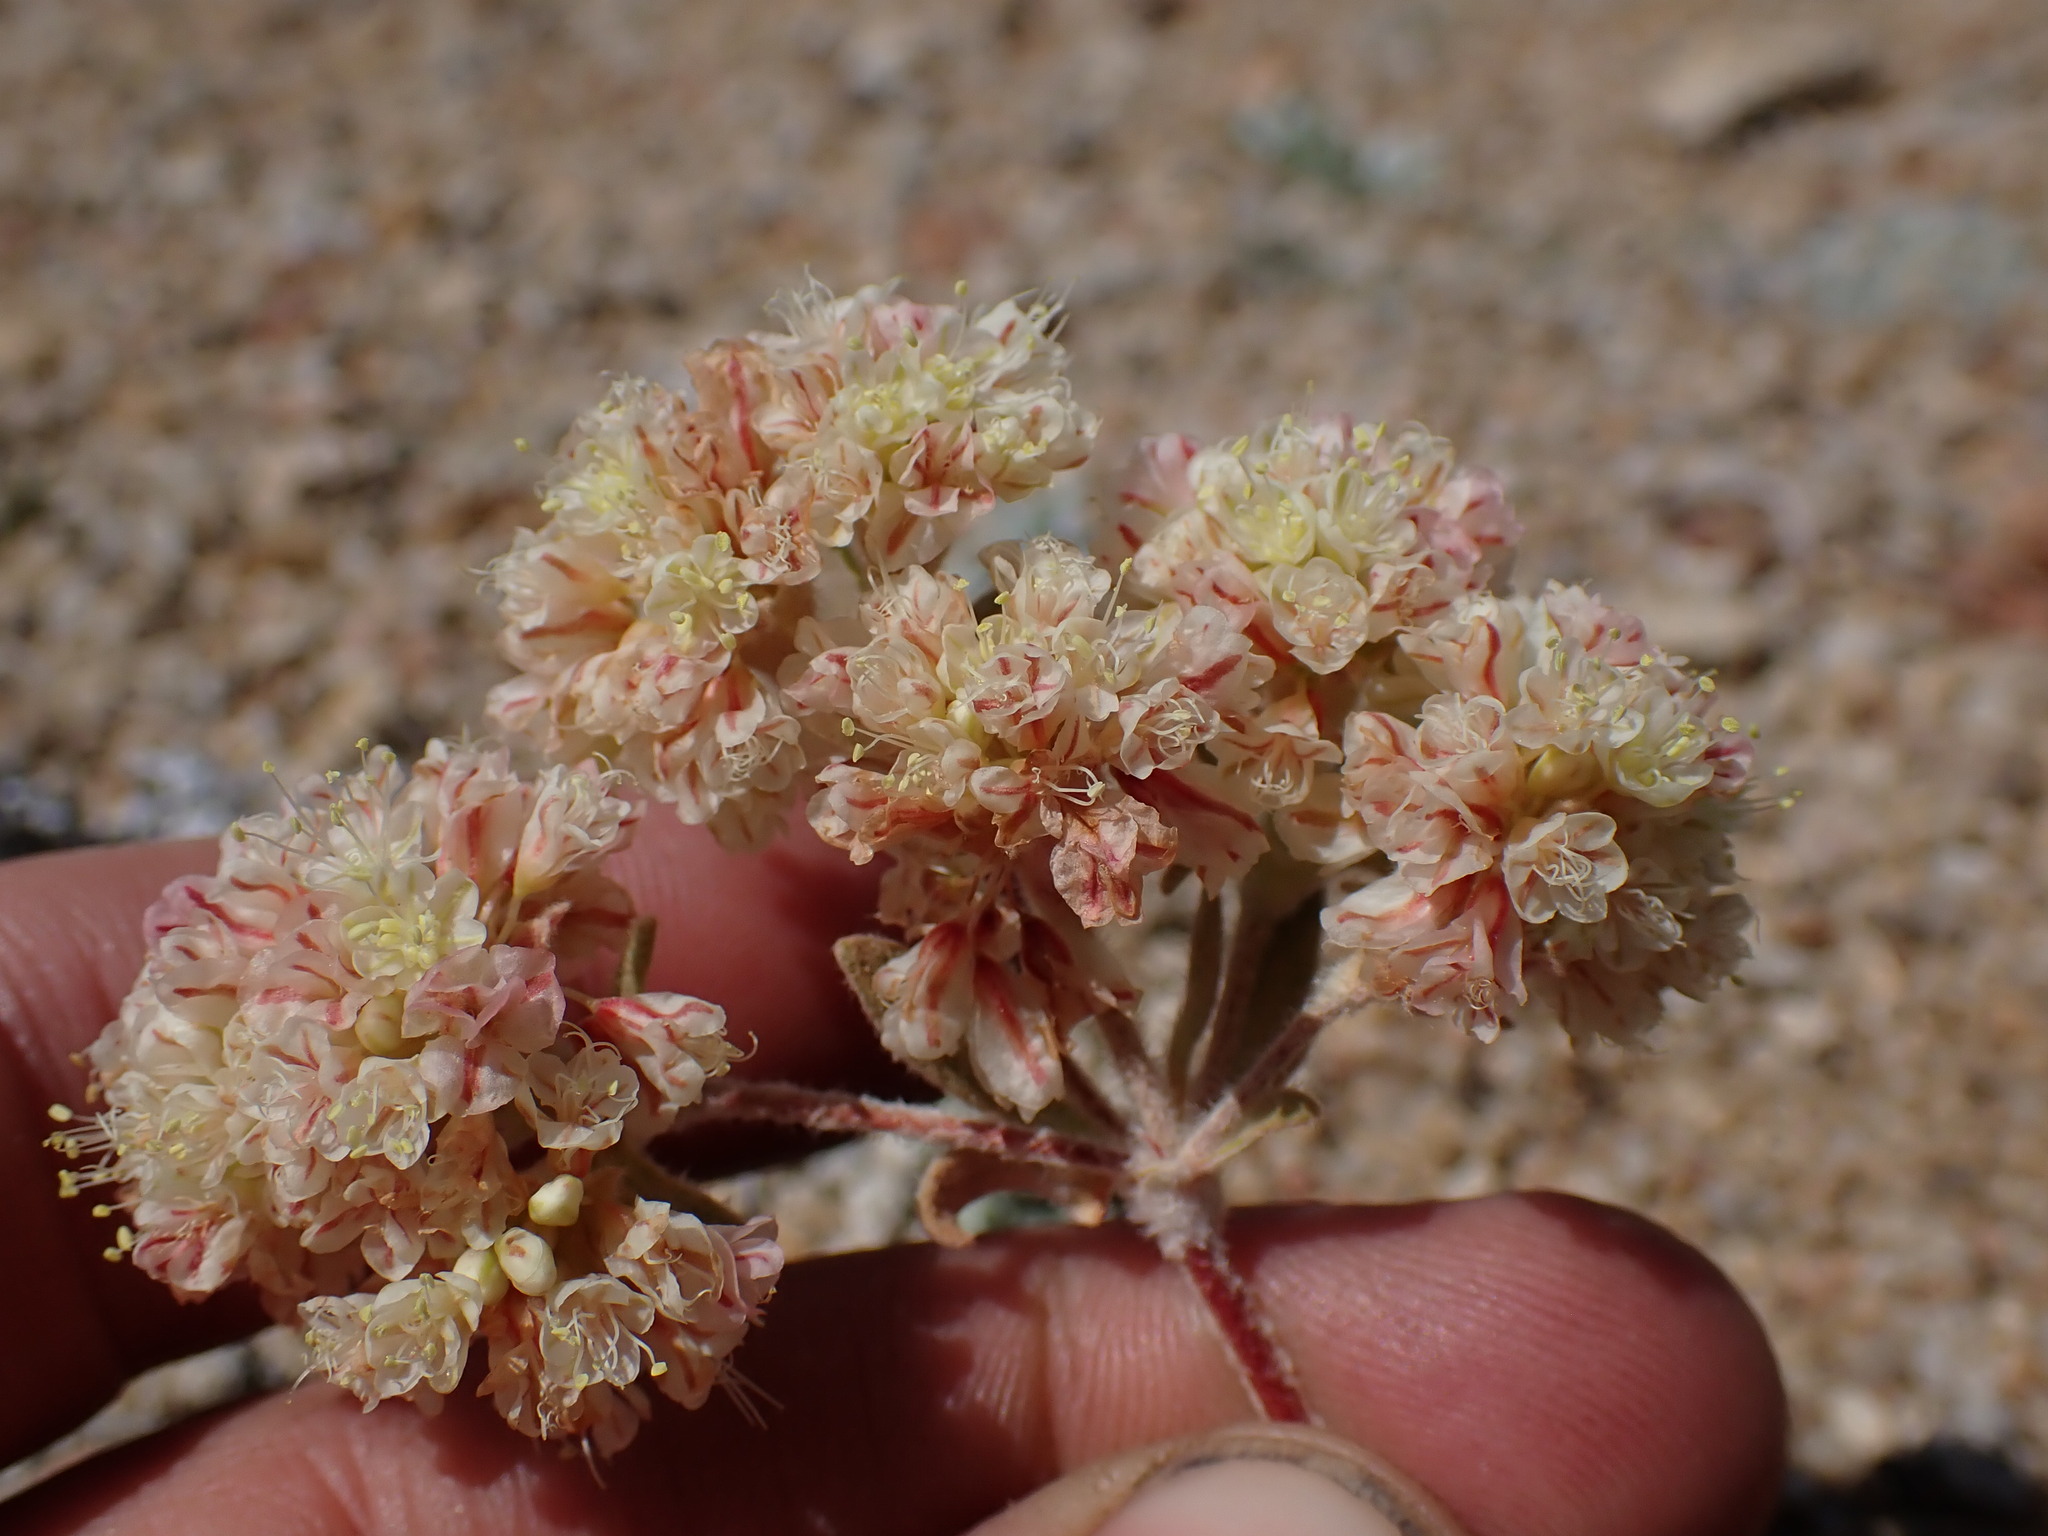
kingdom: Plantae
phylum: Tracheophyta
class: Magnoliopsida
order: Caryophyllales
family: Polygonaceae
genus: Eriogonum
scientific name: Eriogonum lobbii
